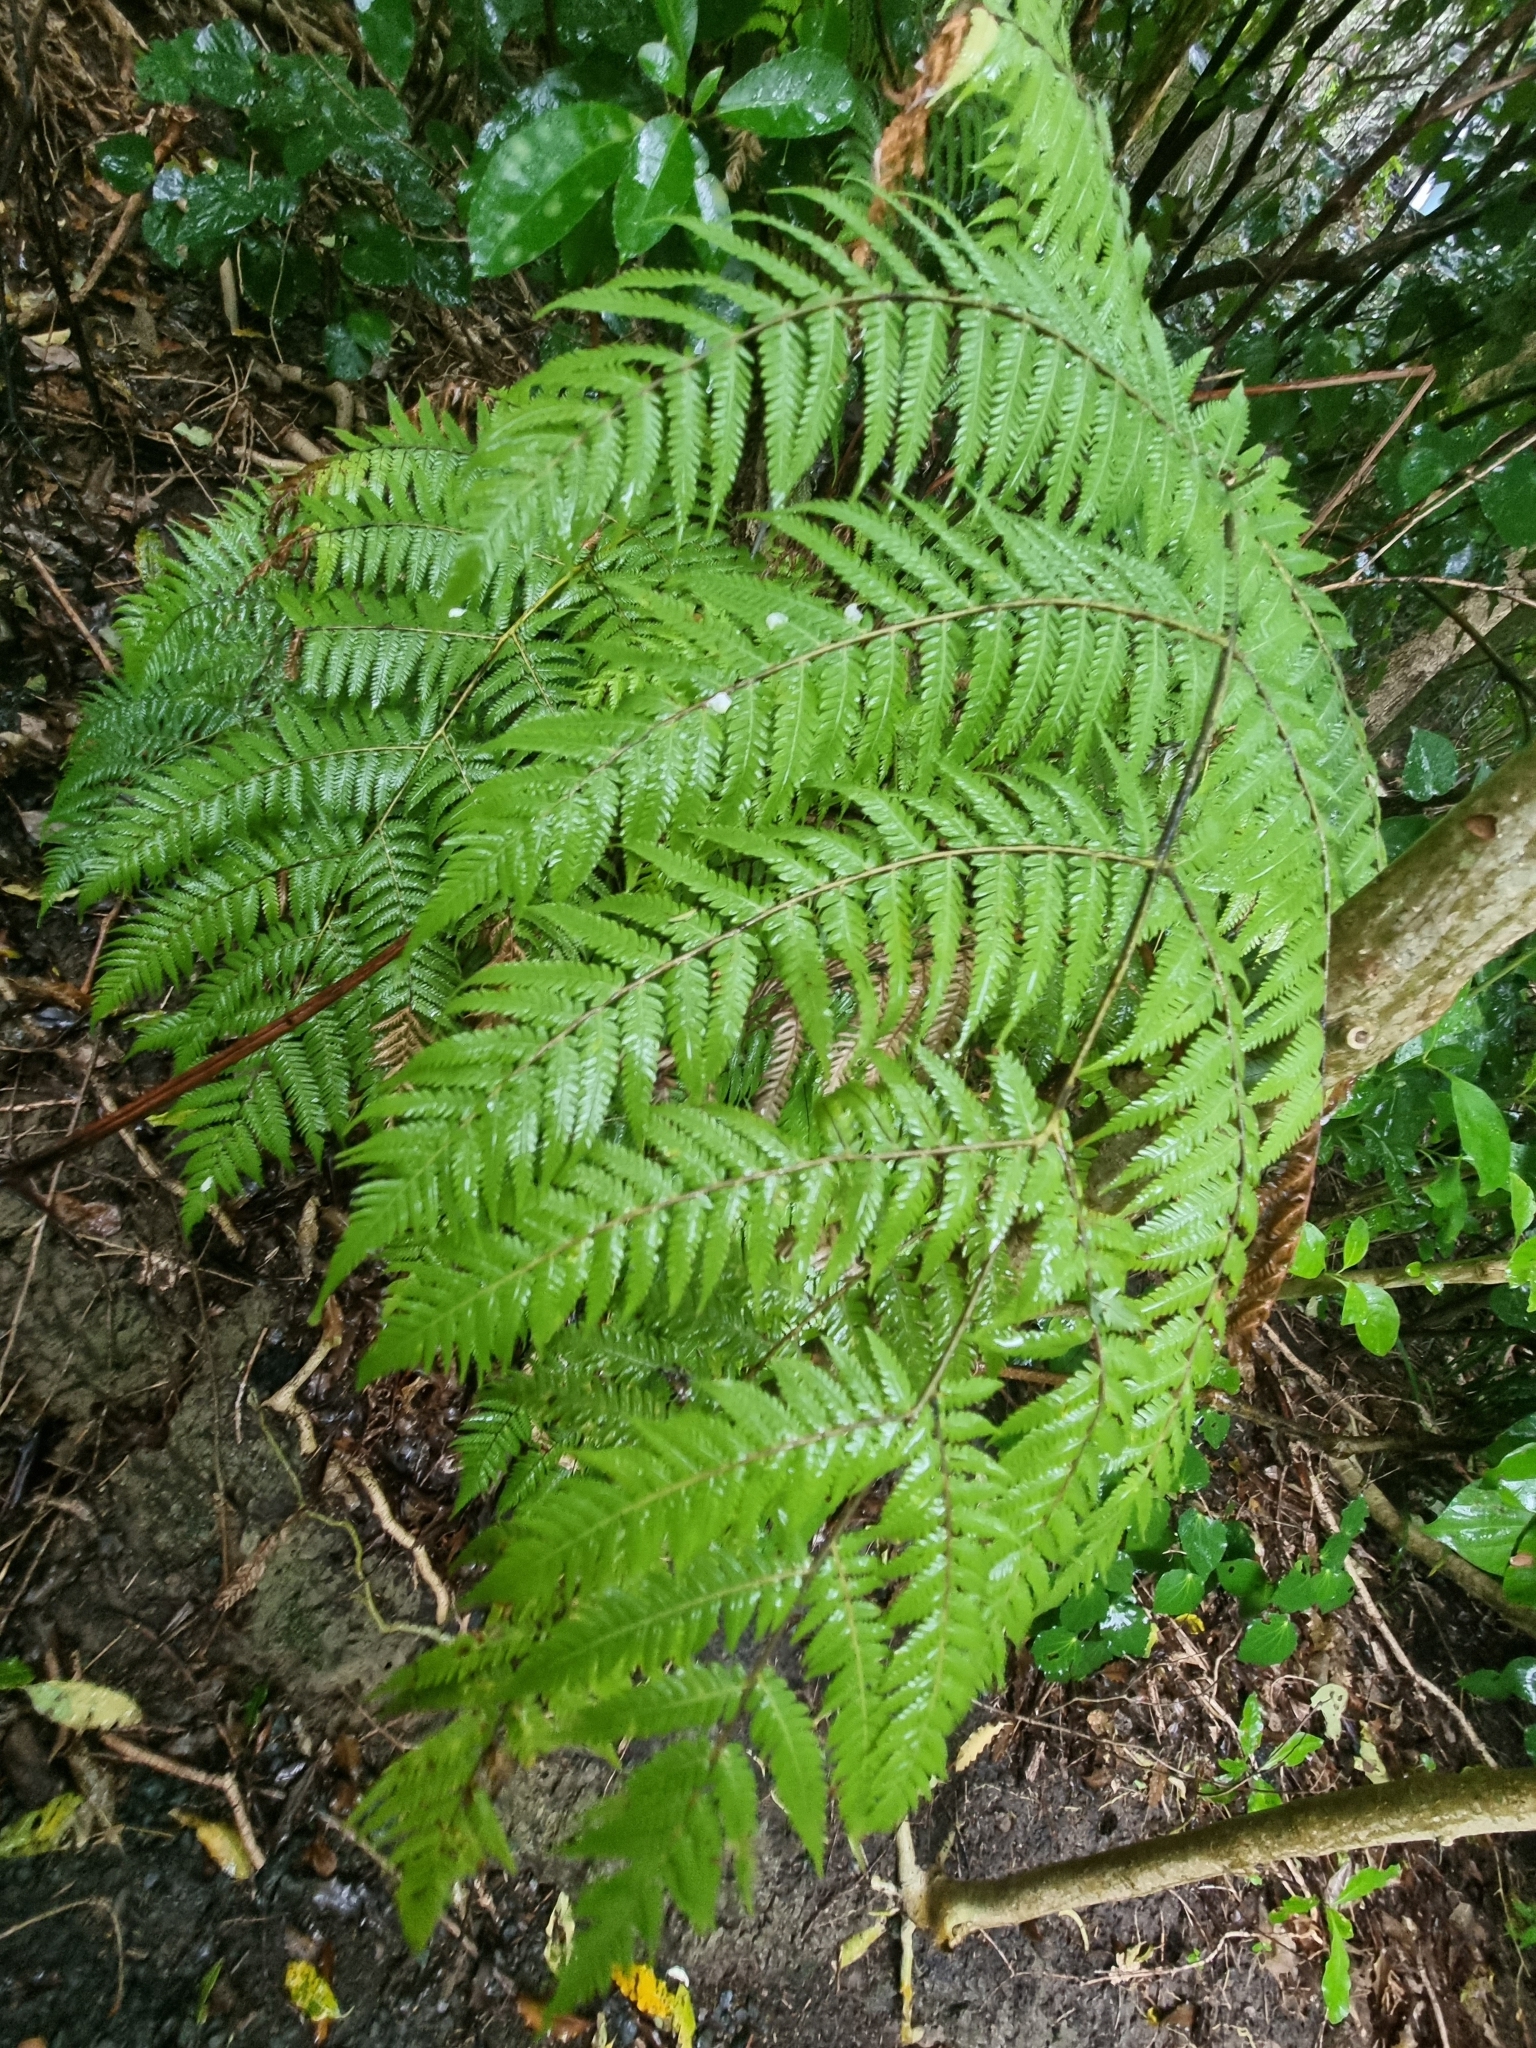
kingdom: Plantae
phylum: Tracheophyta
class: Polypodiopsida
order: Cyatheales
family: Cyatheaceae
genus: Alsophila
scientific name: Alsophila dealbata
